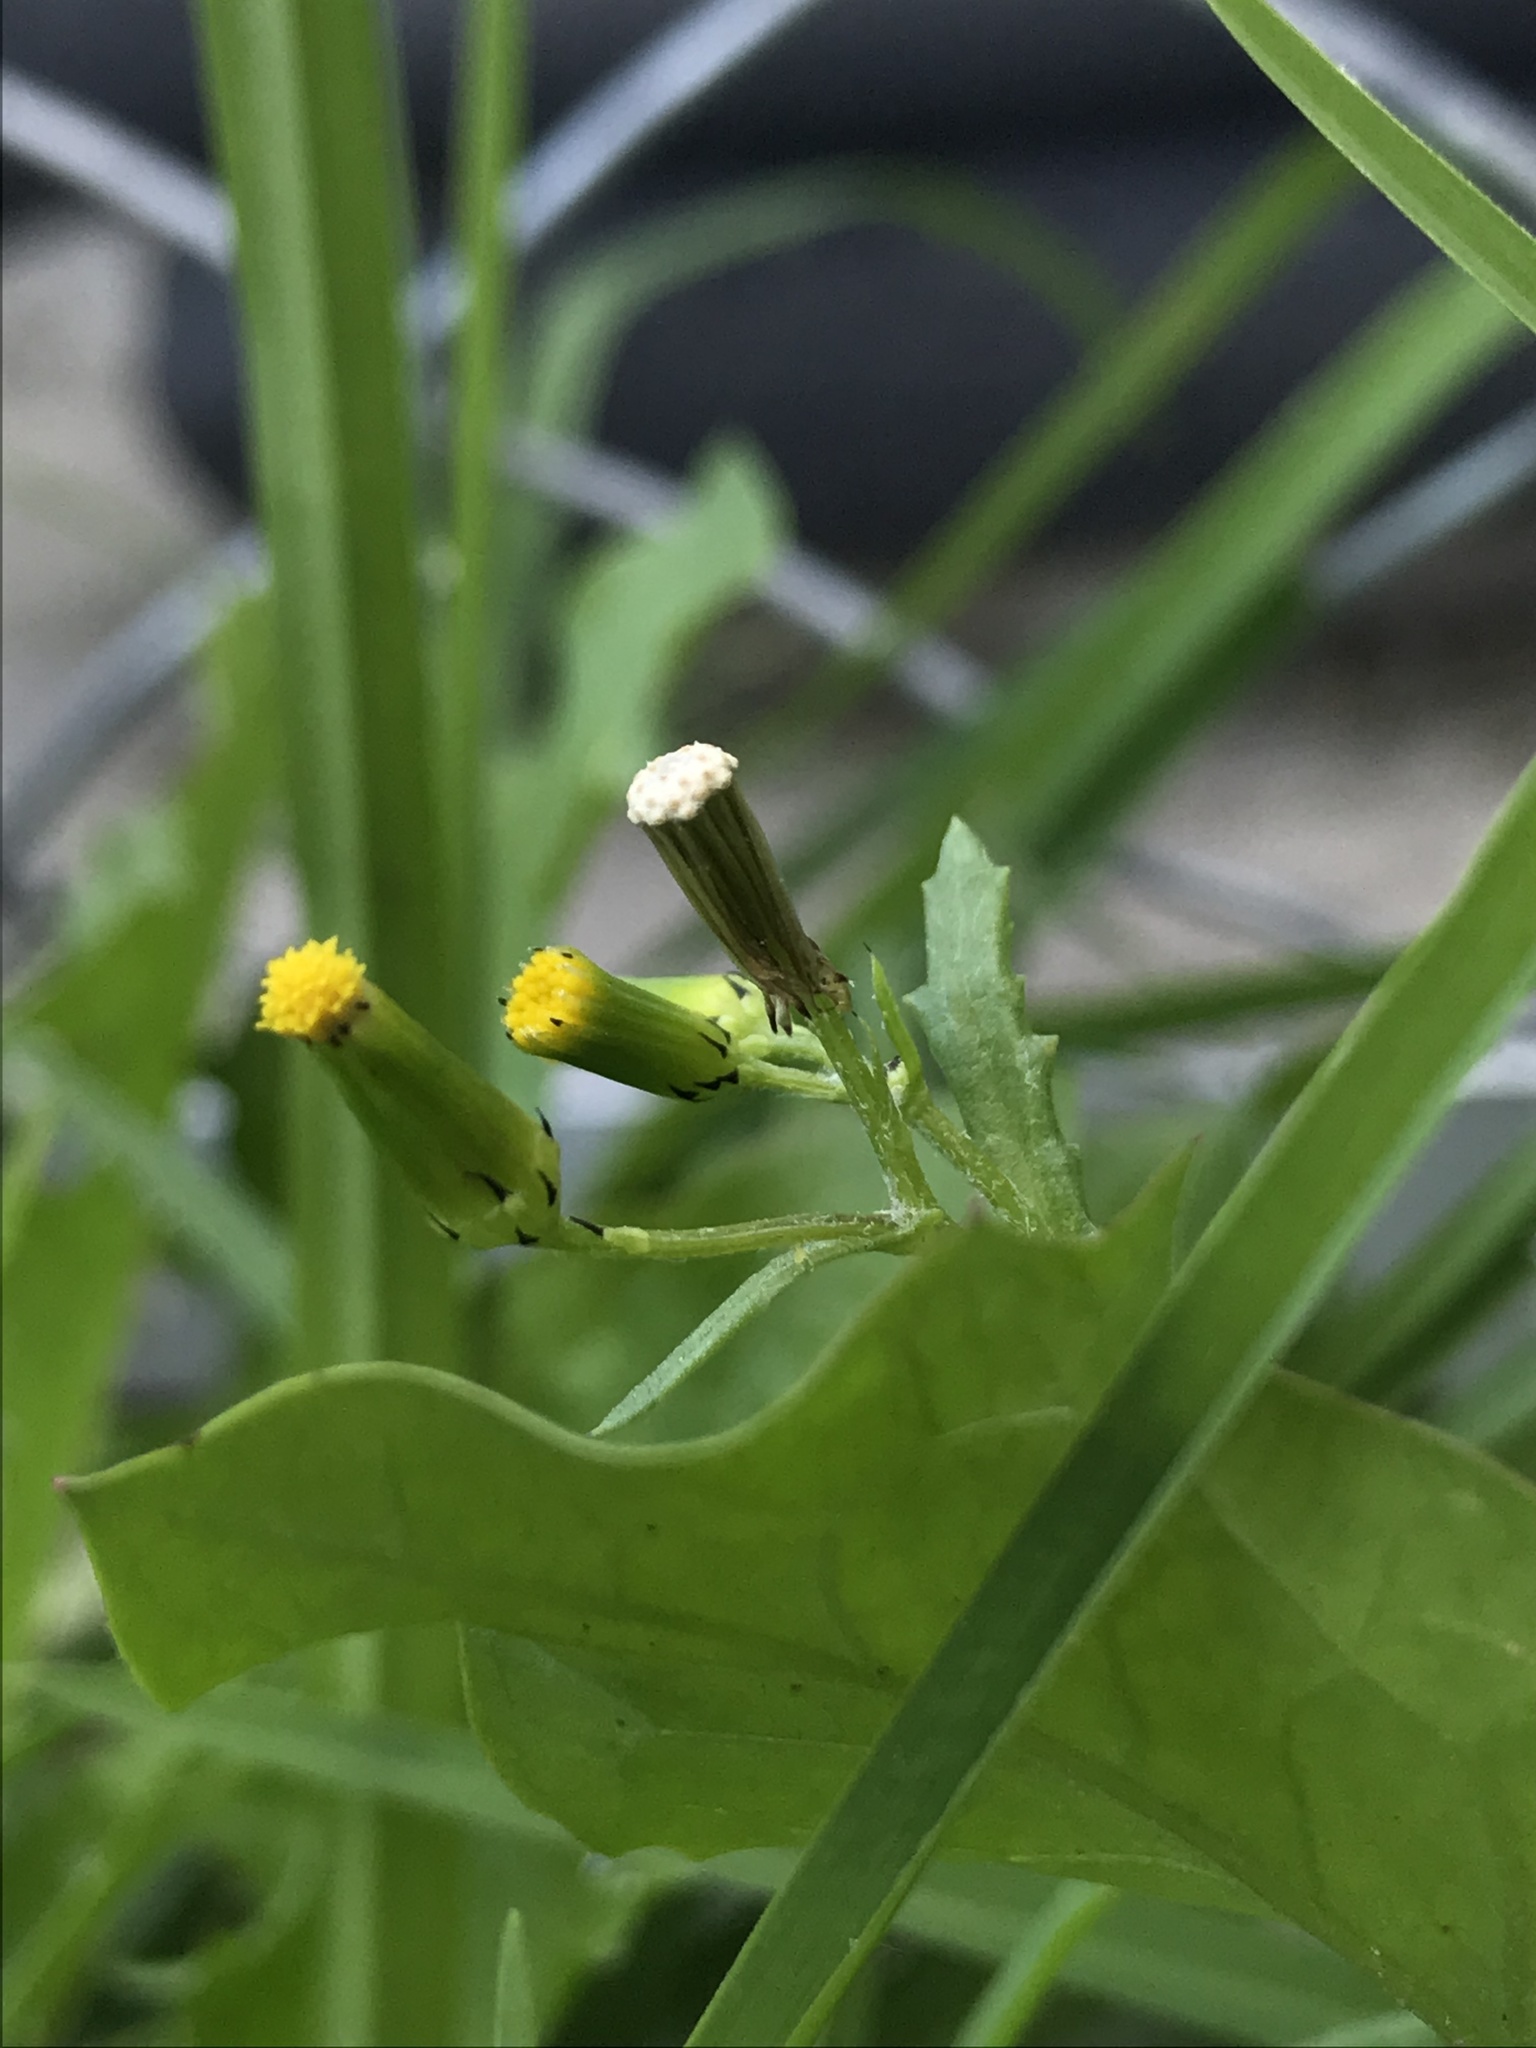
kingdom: Plantae
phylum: Tracheophyta
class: Magnoliopsida
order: Asterales
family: Asteraceae
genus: Senecio
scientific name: Senecio vulgaris
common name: Old-man-in-the-spring
